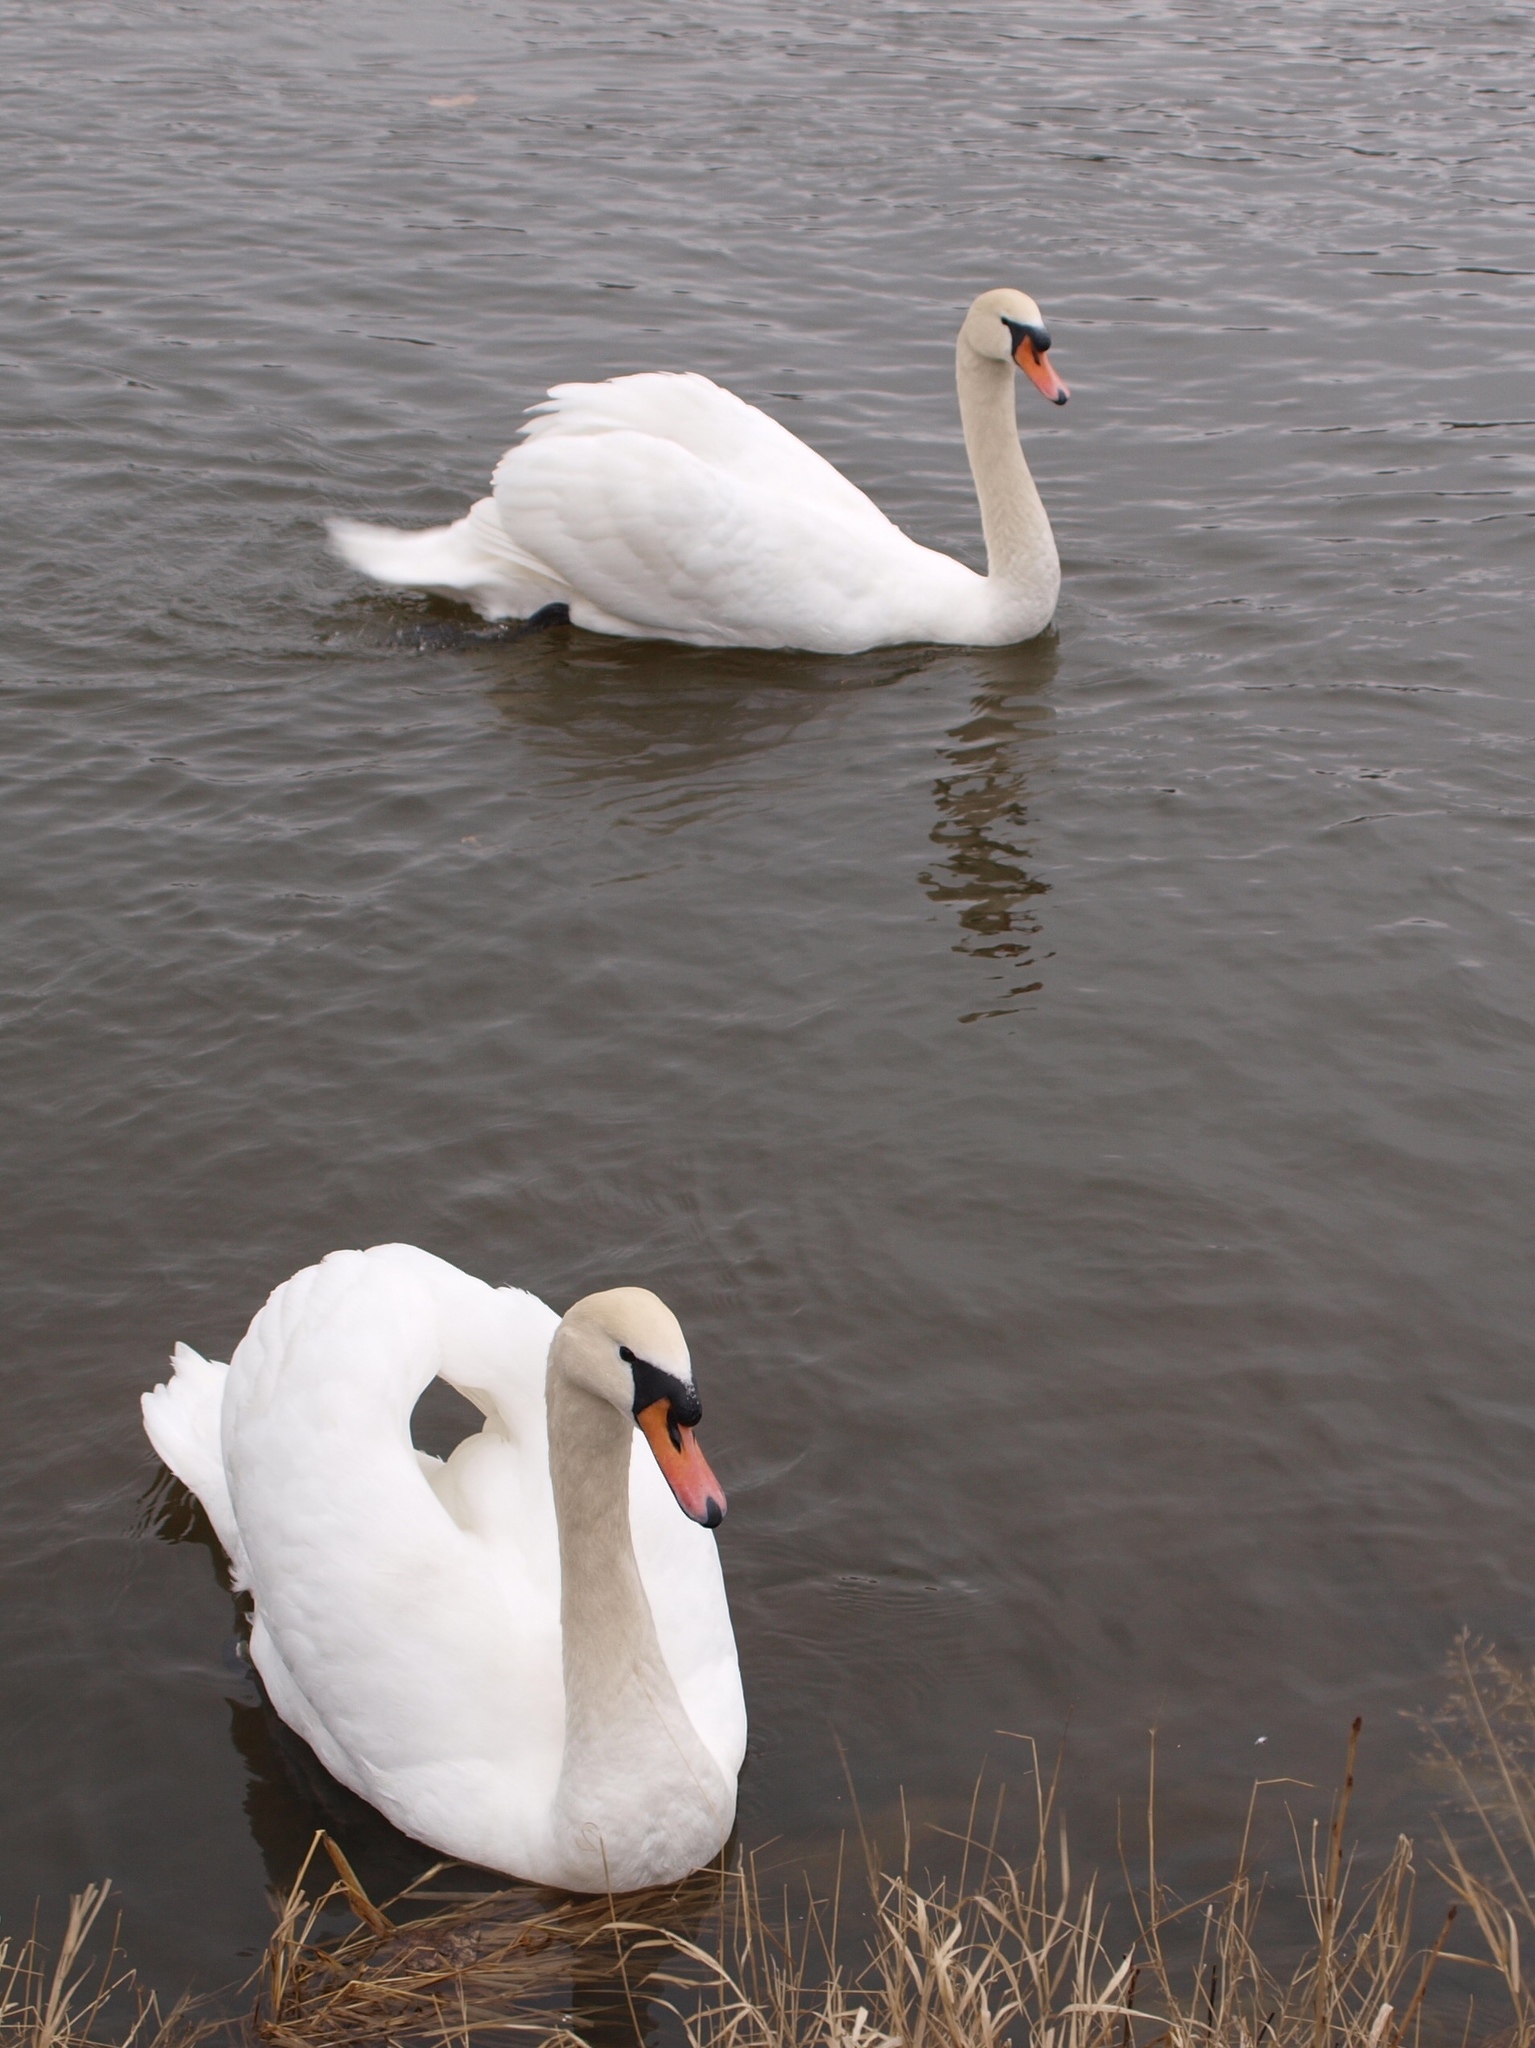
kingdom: Animalia
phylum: Chordata
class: Aves
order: Anseriformes
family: Anatidae
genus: Cygnus
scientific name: Cygnus olor
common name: Mute swan
